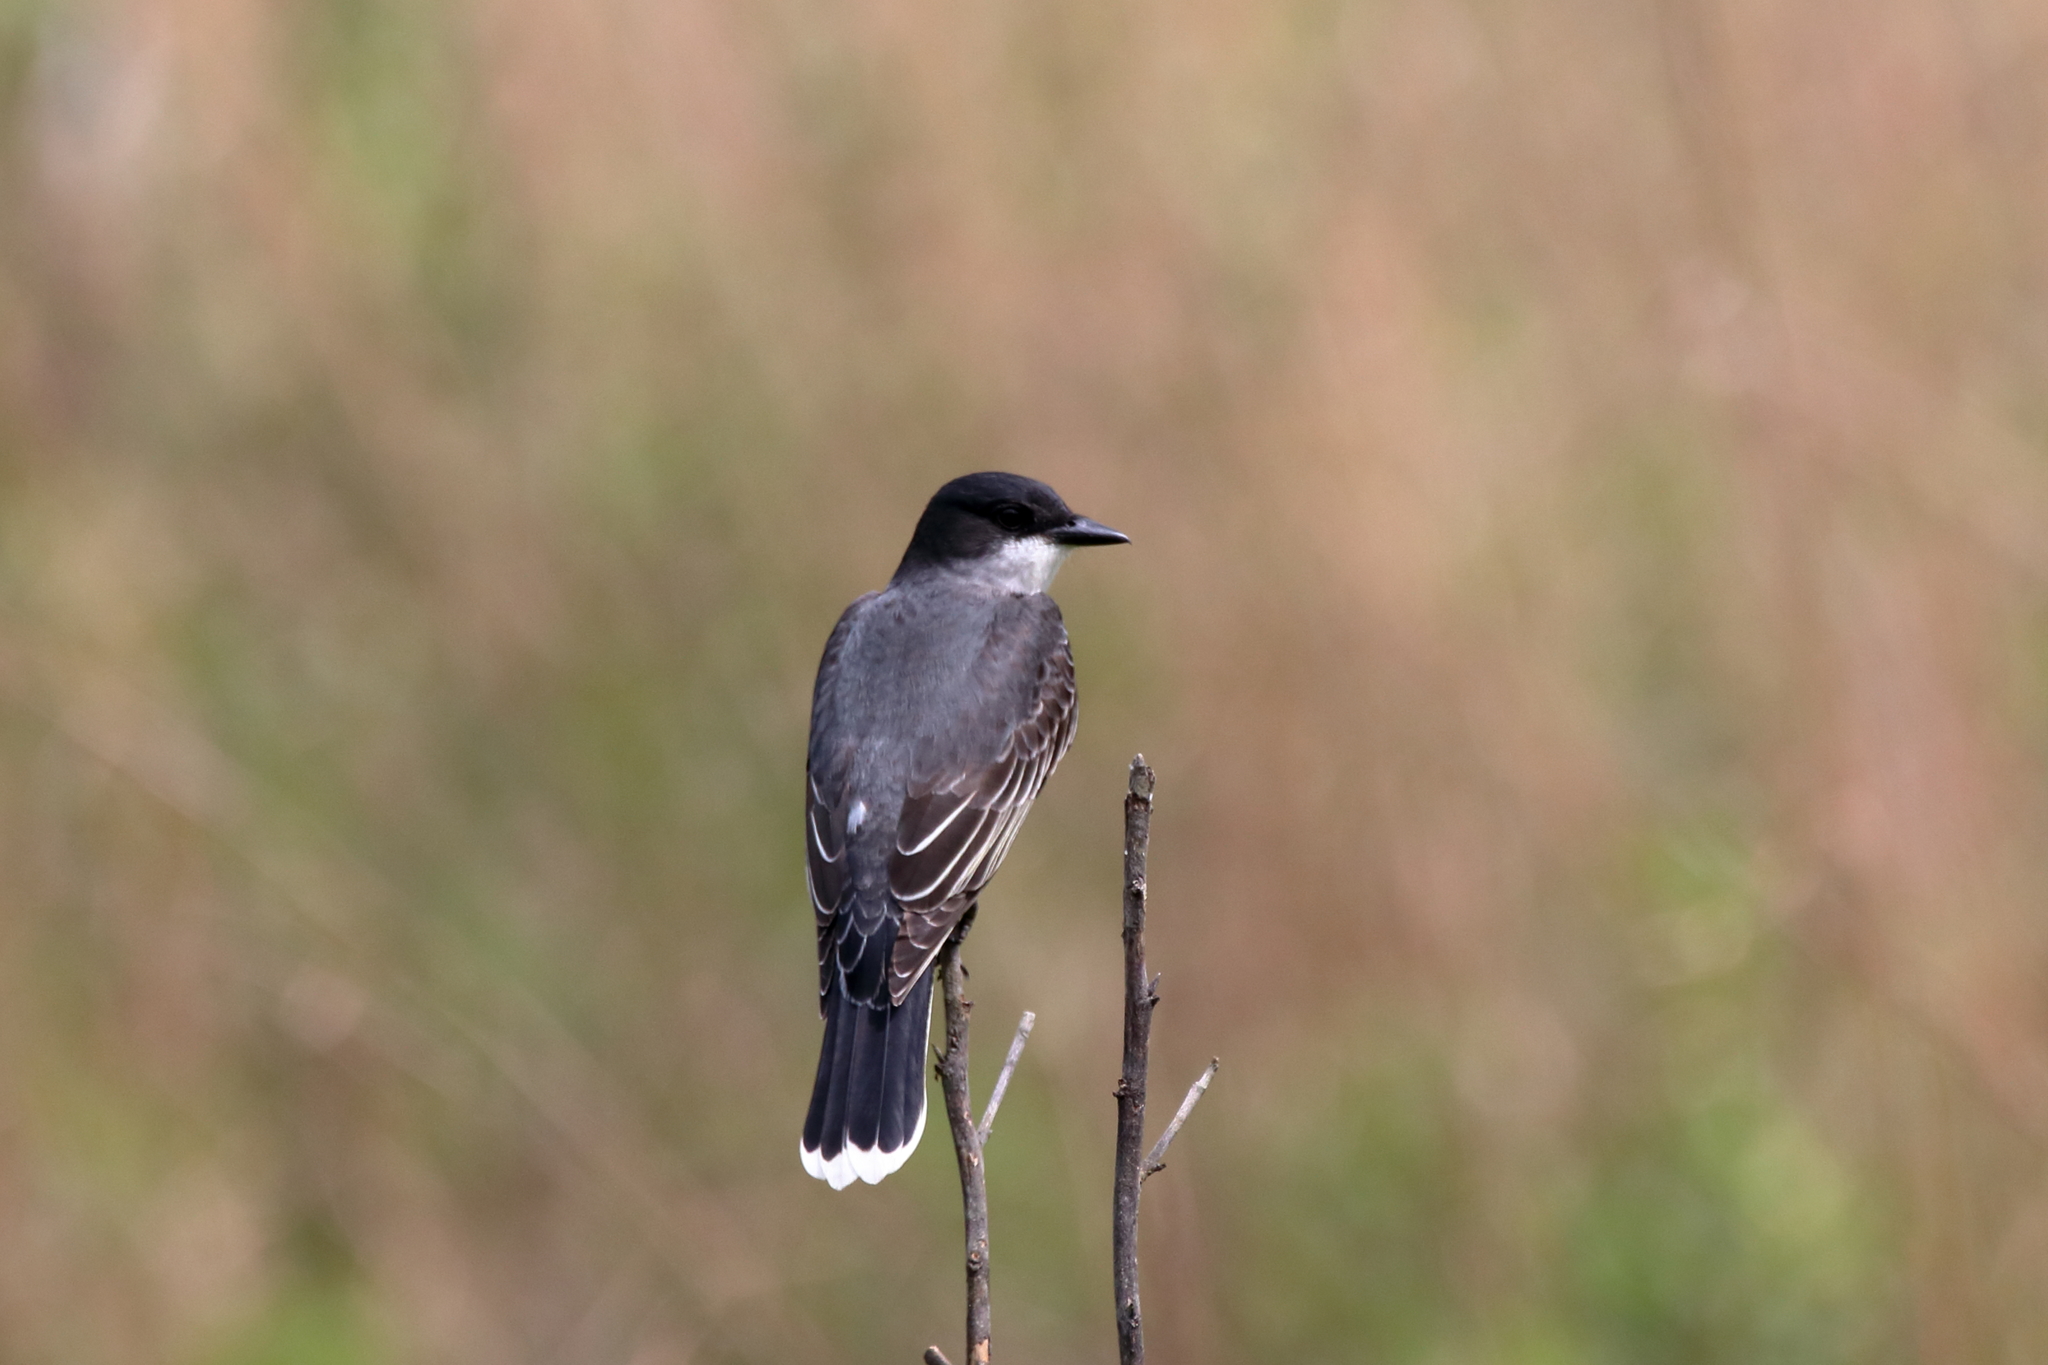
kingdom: Animalia
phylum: Chordata
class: Aves
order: Passeriformes
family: Tyrannidae
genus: Tyrannus
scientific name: Tyrannus tyrannus
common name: Eastern kingbird
